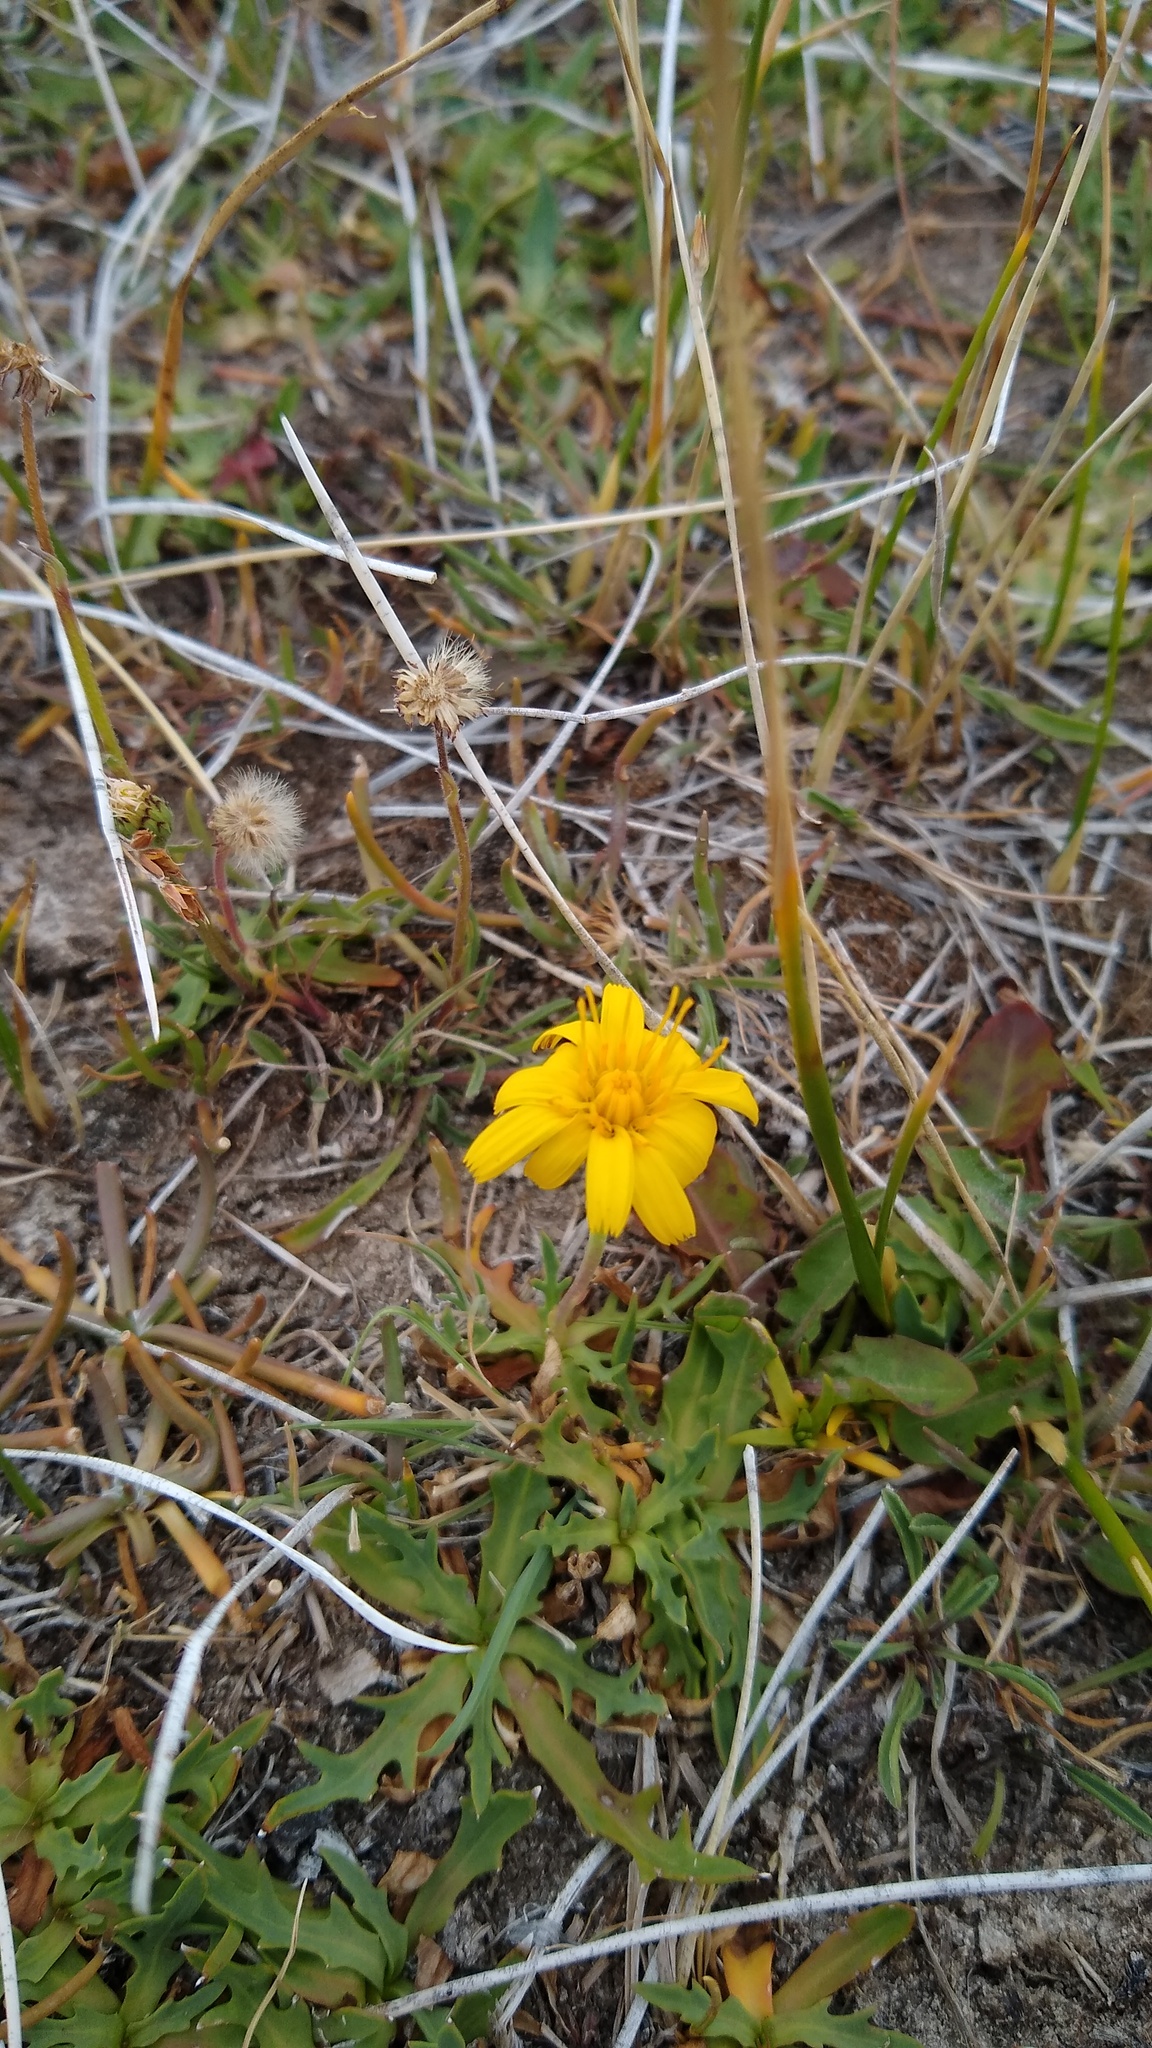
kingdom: Plantae
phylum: Tracheophyta
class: Magnoliopsida
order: Asterales
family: Asteraceae
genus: Hypochaeris
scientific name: Hypochaeris chondrilloides
